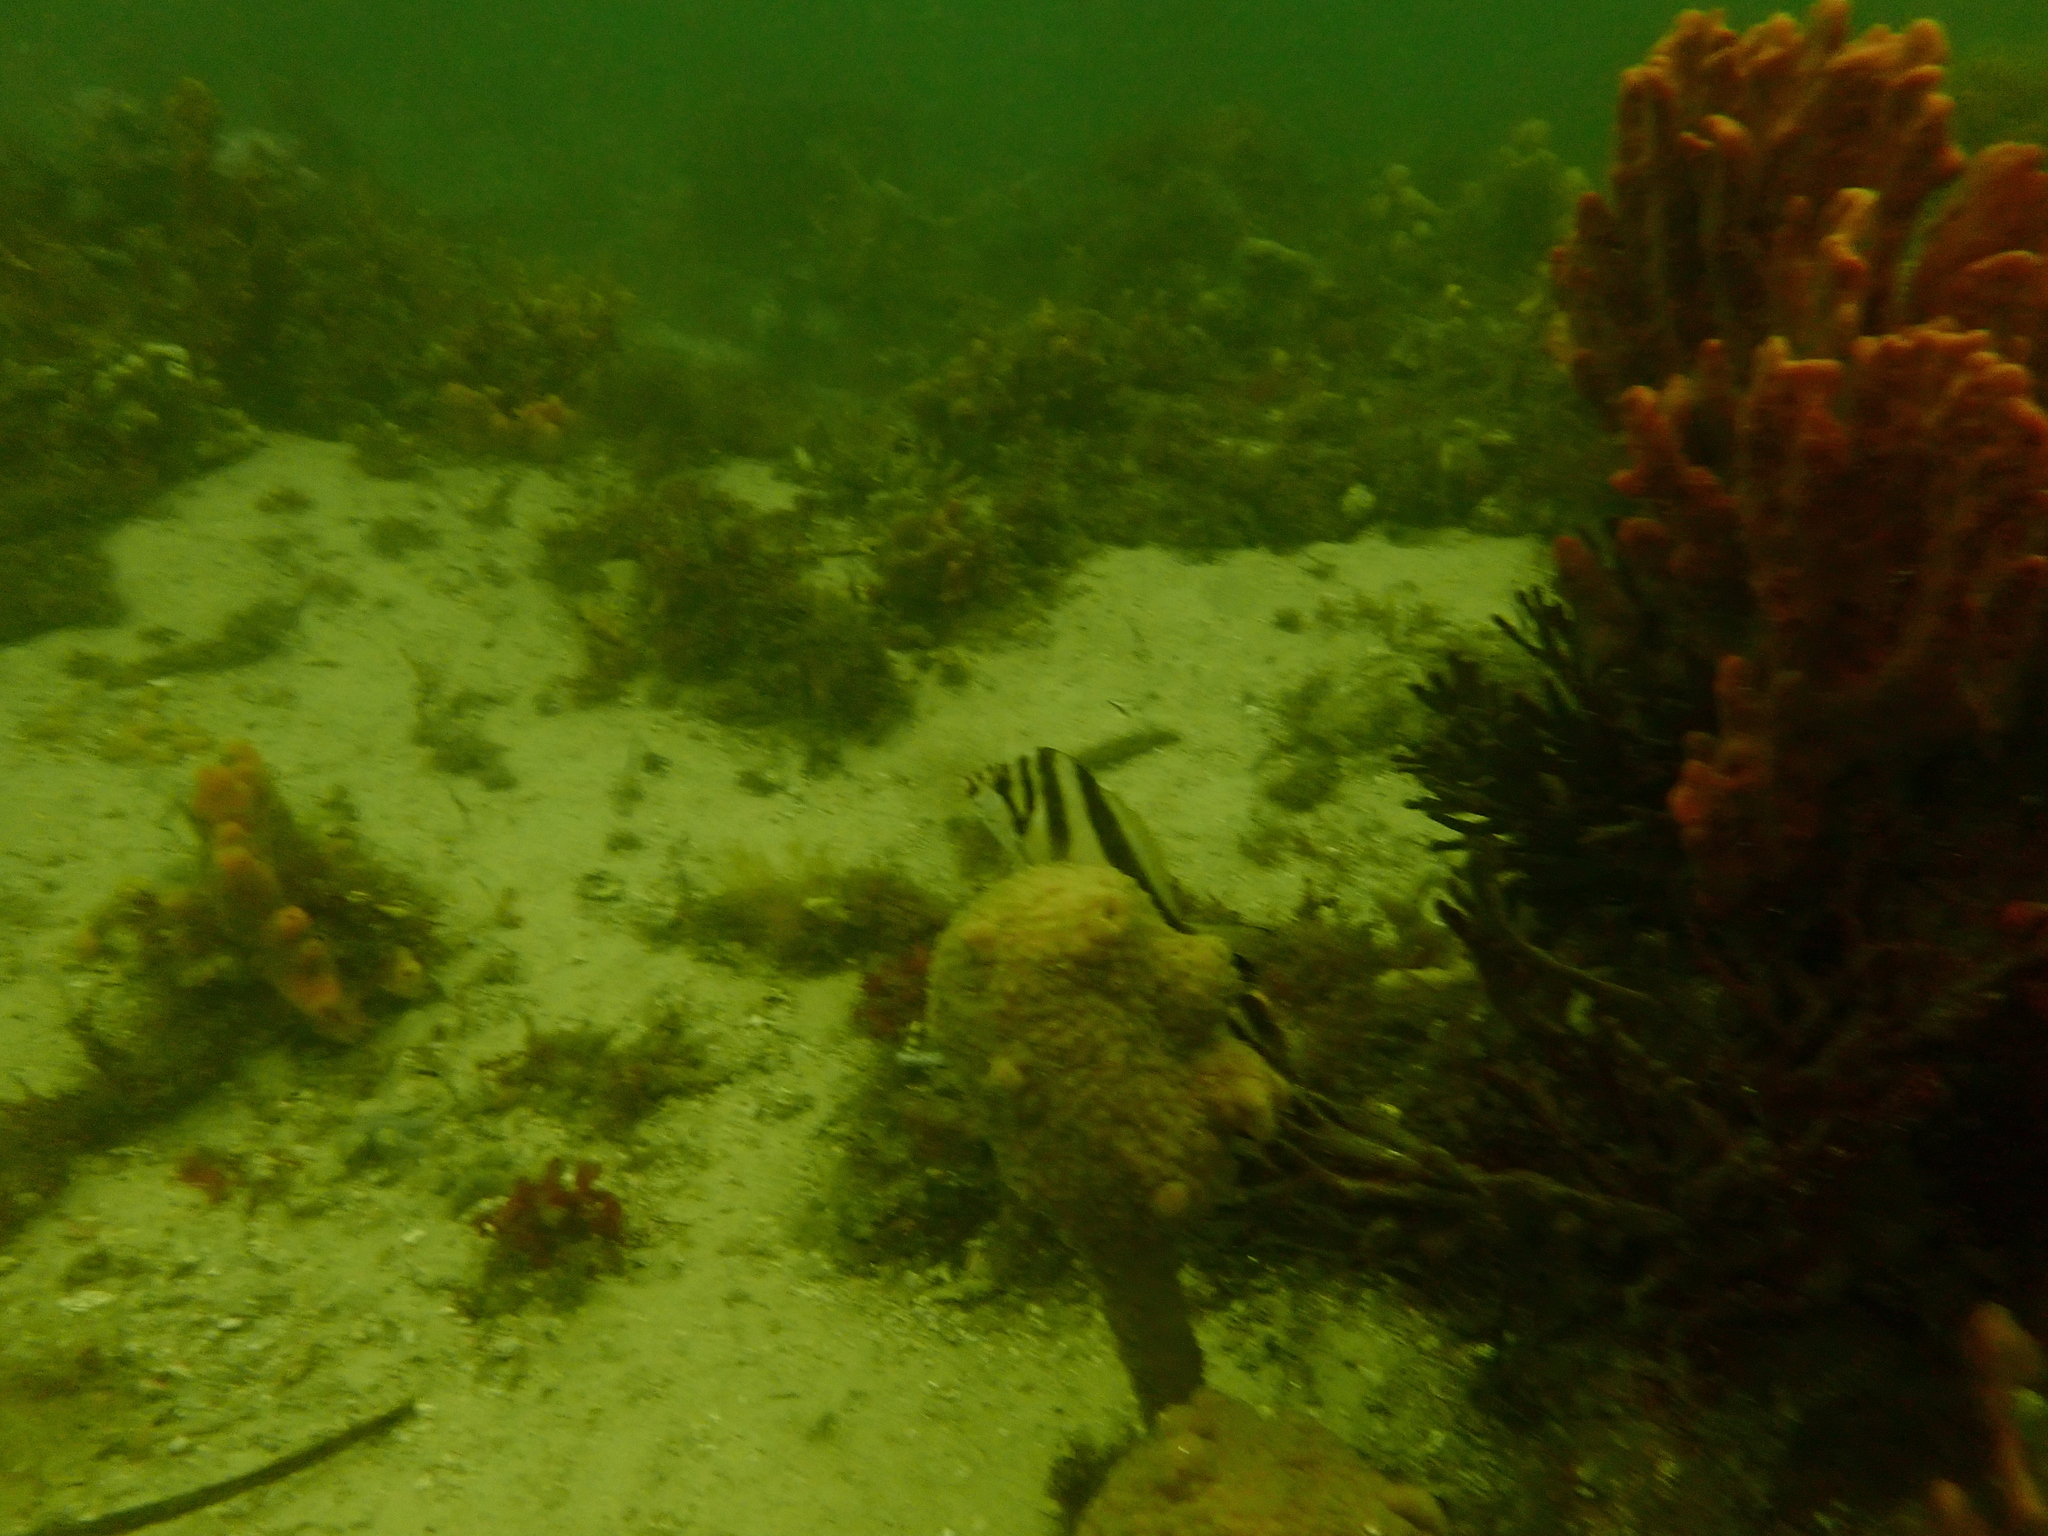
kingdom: Animalia
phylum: Chordata
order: Perciformes
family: Cheilodactylidae
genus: Cheilodactylus
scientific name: Cheilodactylus vestitus
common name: Crested morwong
